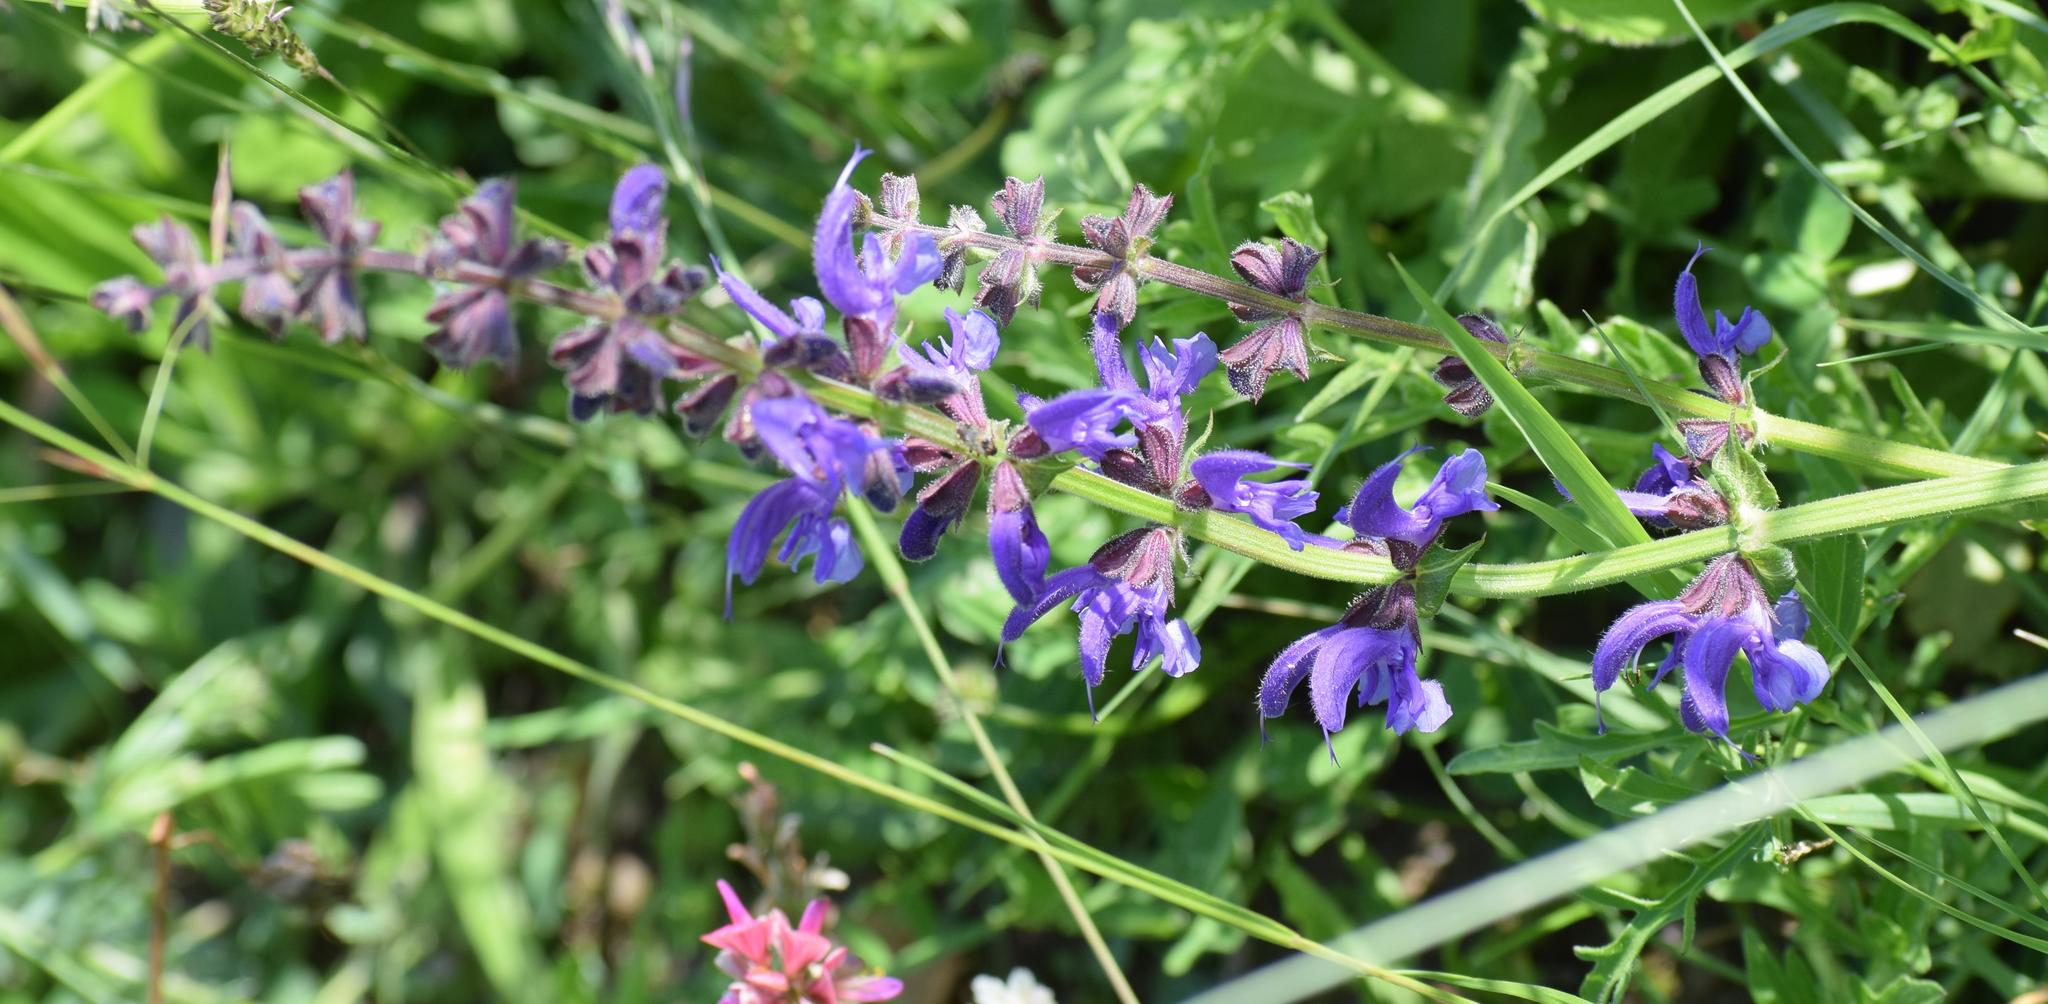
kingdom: Plantae
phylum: Tracheophyta
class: Magnoliopsida
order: Lamiales
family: Lamiaceae
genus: Salvia
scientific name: Salvia pratensis
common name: Meadow sage
